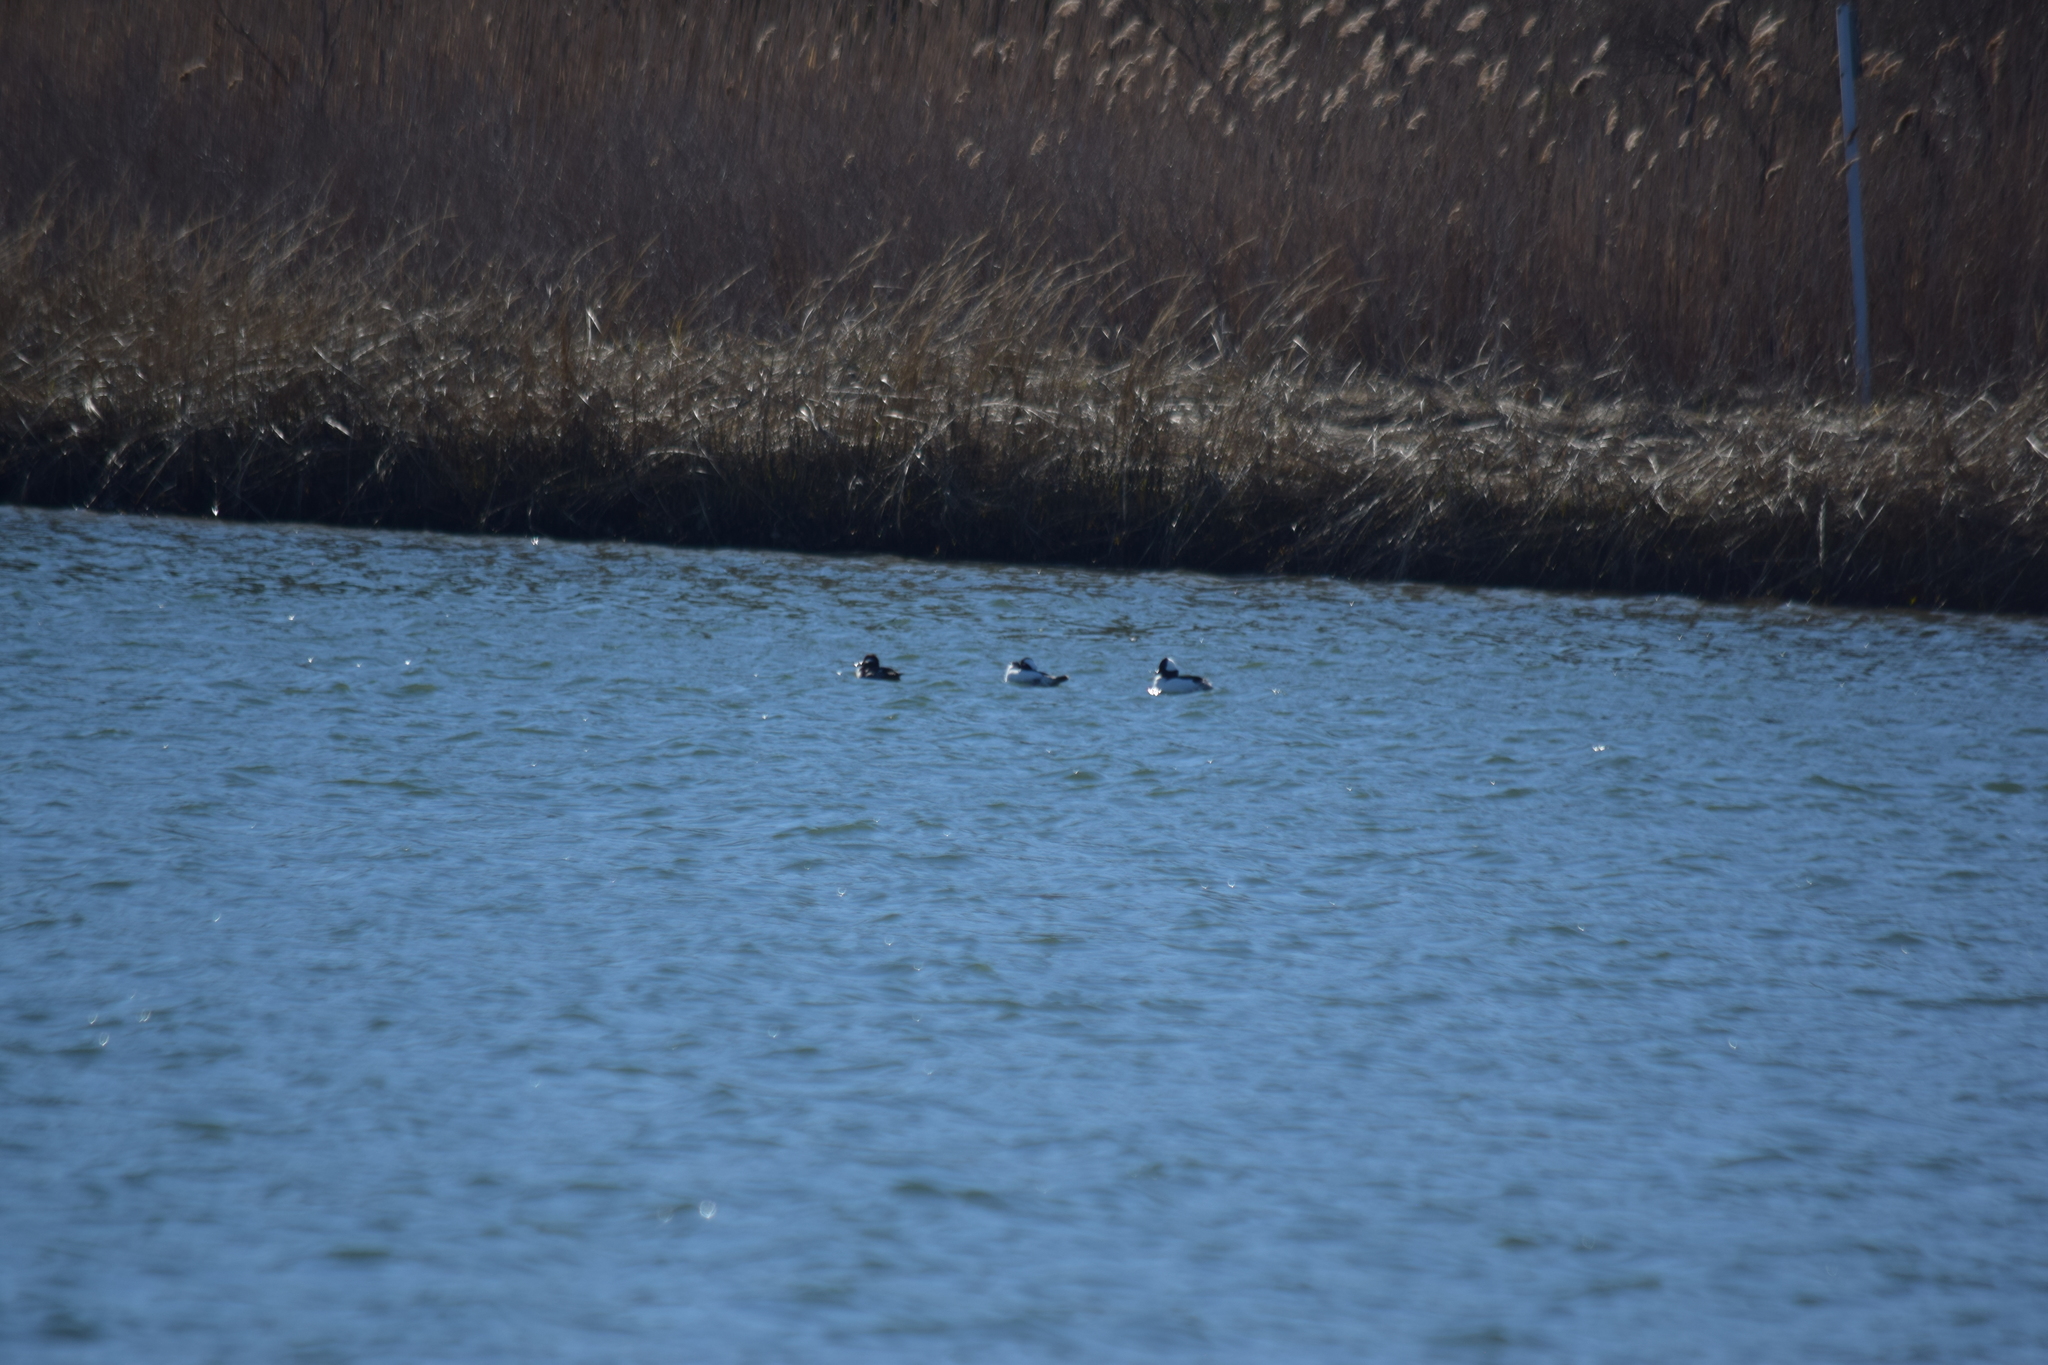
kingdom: Animalia
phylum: Chordata
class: Aves
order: Anseriformes
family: Anatidae
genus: Bucephala
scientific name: Bucephala albeola
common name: Bufflehead
